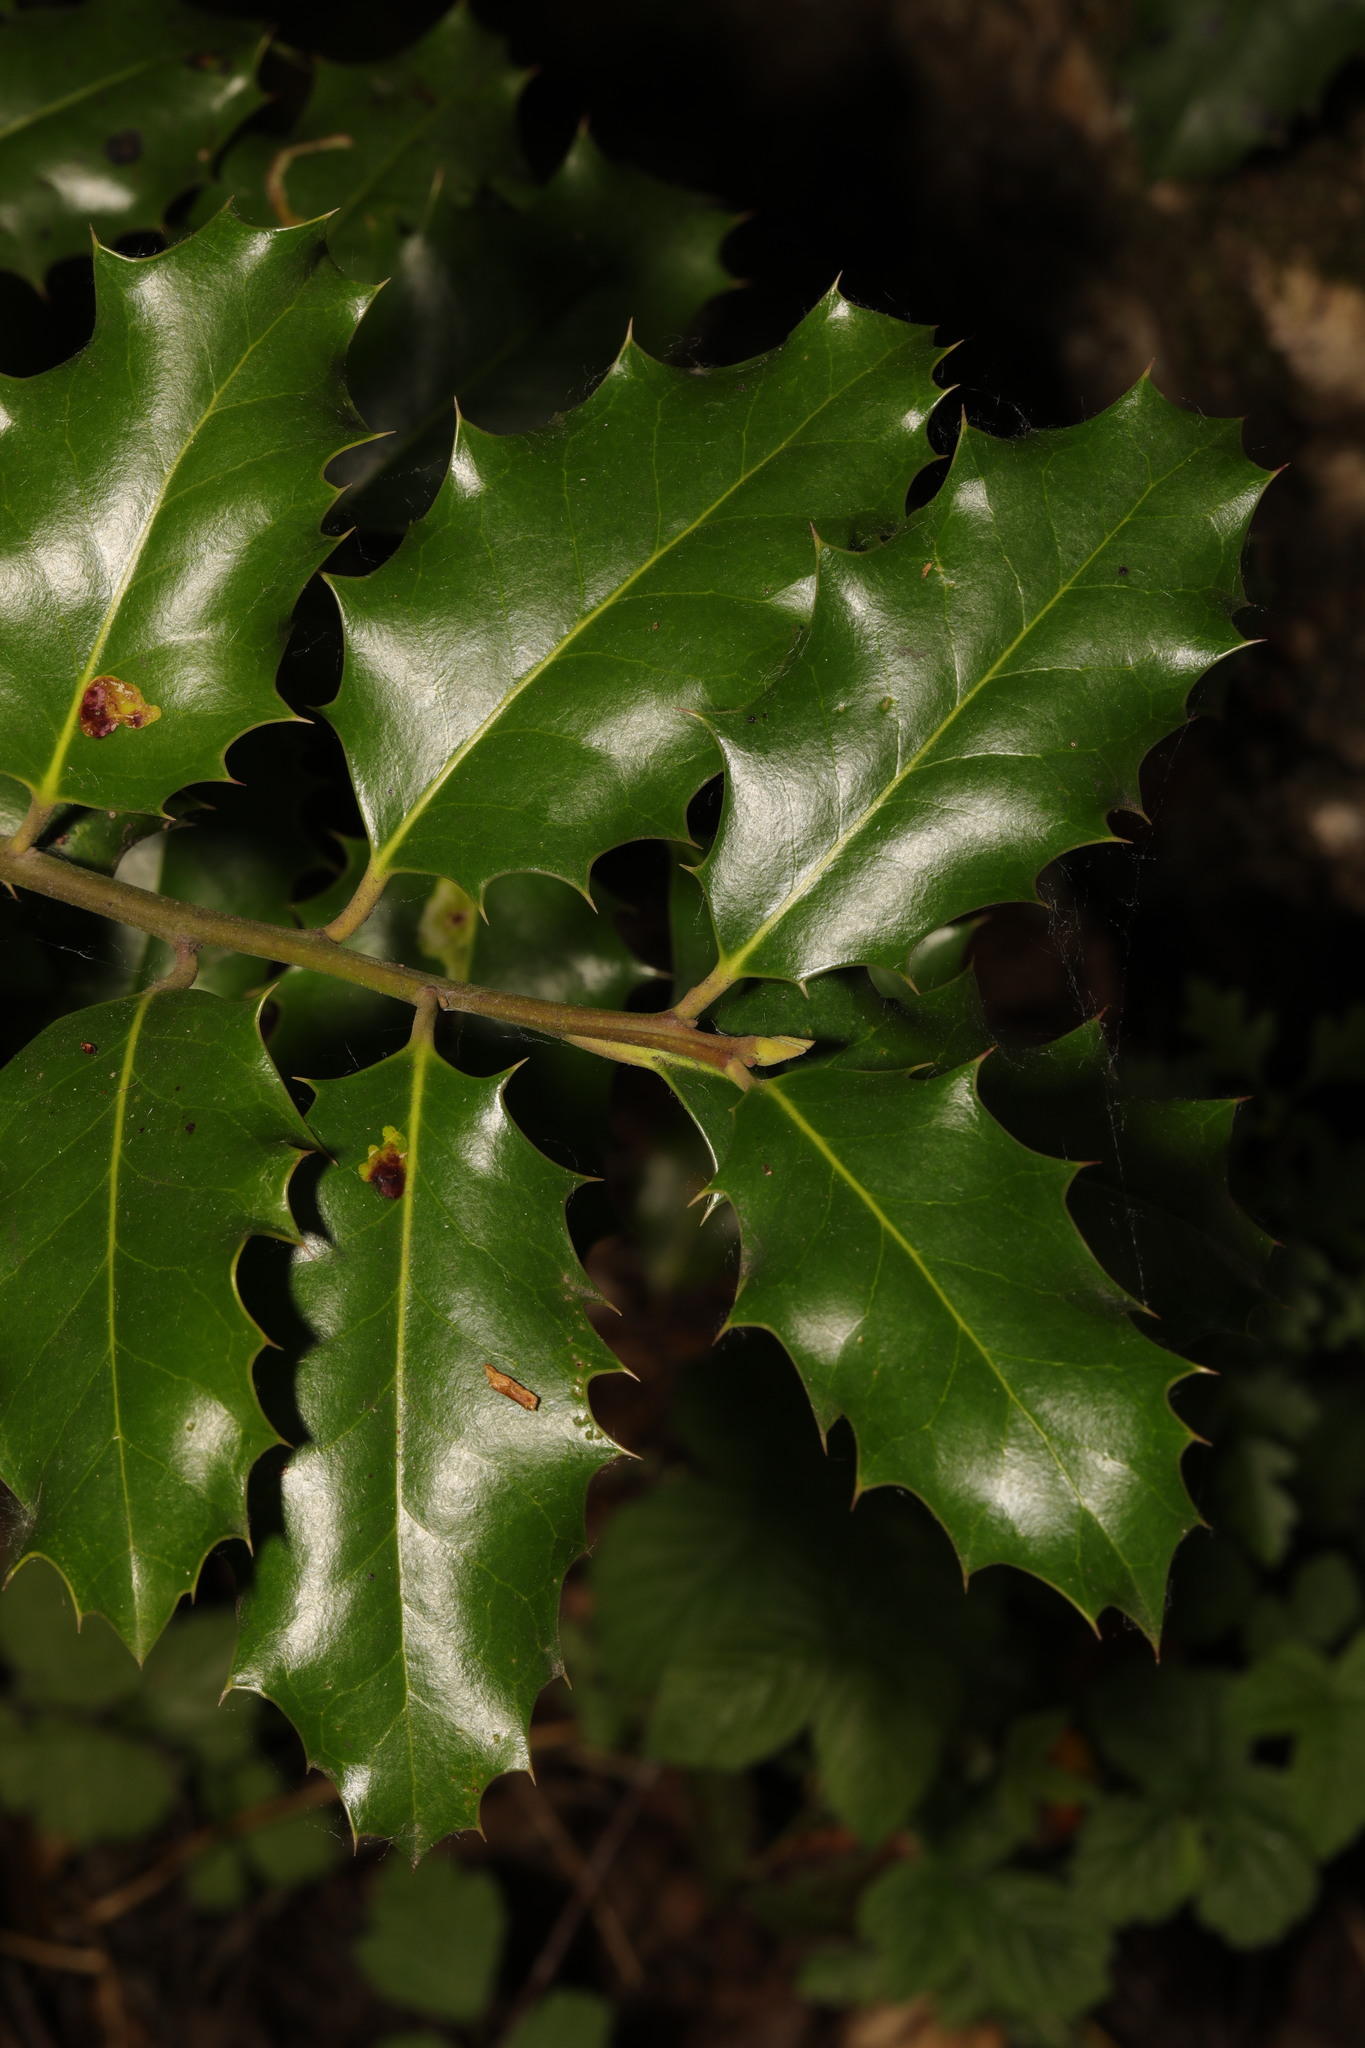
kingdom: Plantae
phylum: Tracheophyta
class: Magnoliopsida
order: Aquifoliales
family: Aquifoliaceae
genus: Ilex
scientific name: Ilex aquifolium
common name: English holly
